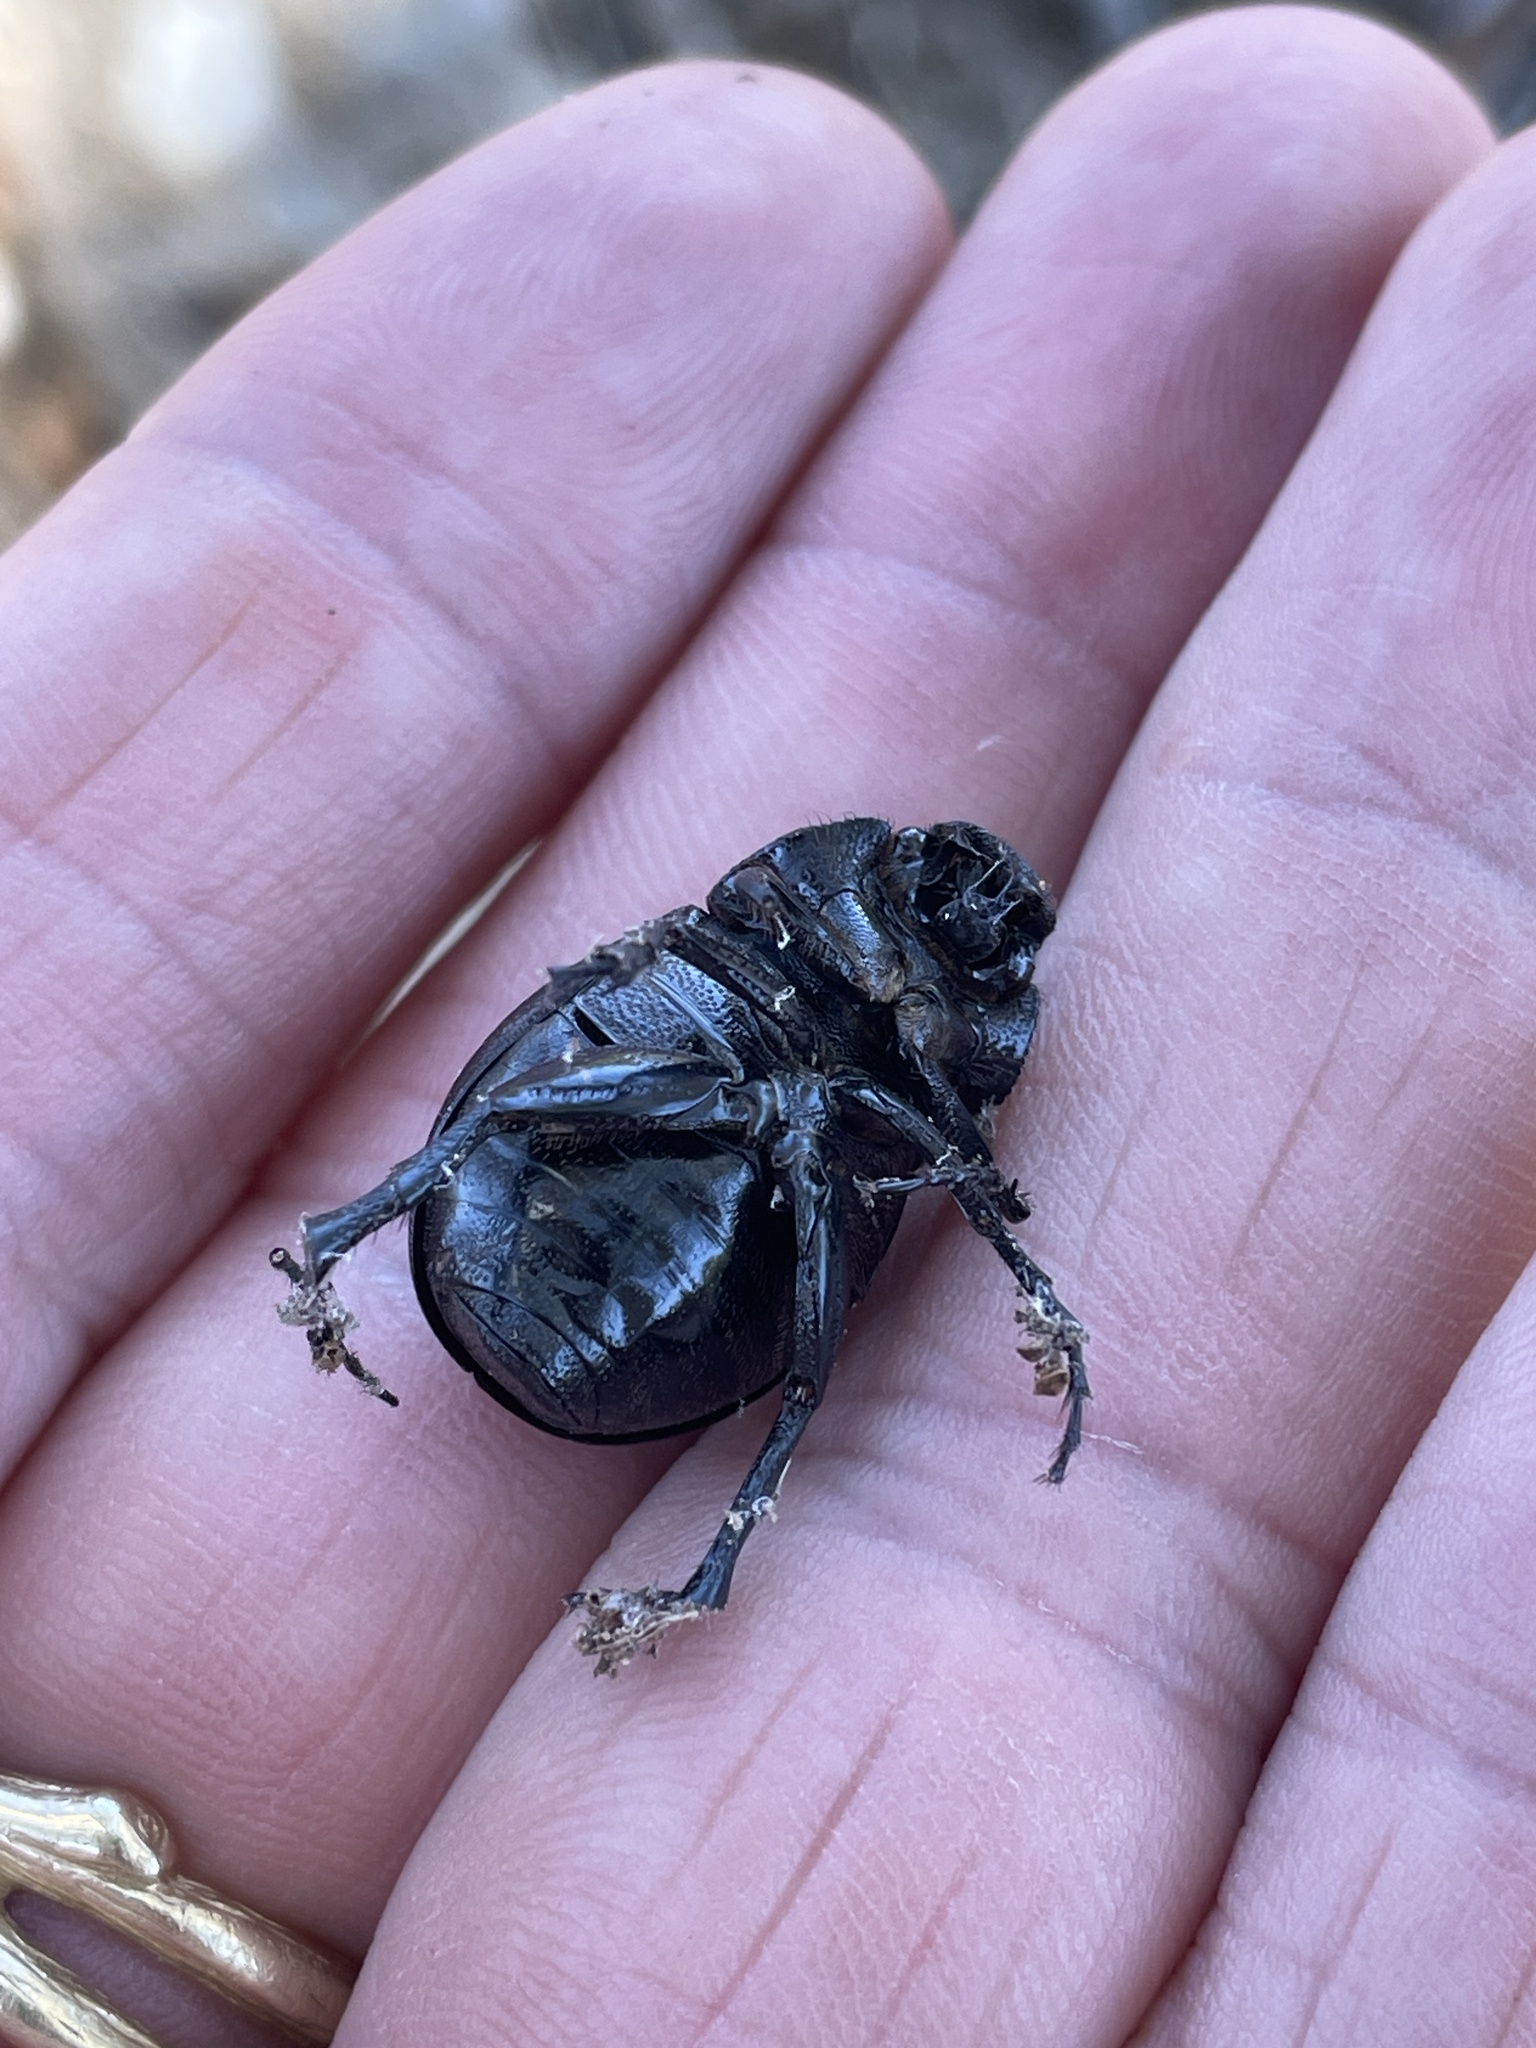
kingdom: Animalia
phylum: Arthropoda
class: Insecta
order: Coleoptera
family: Scarabaeidae
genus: Phyllophaga
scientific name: Phyllophaga cribrosa
